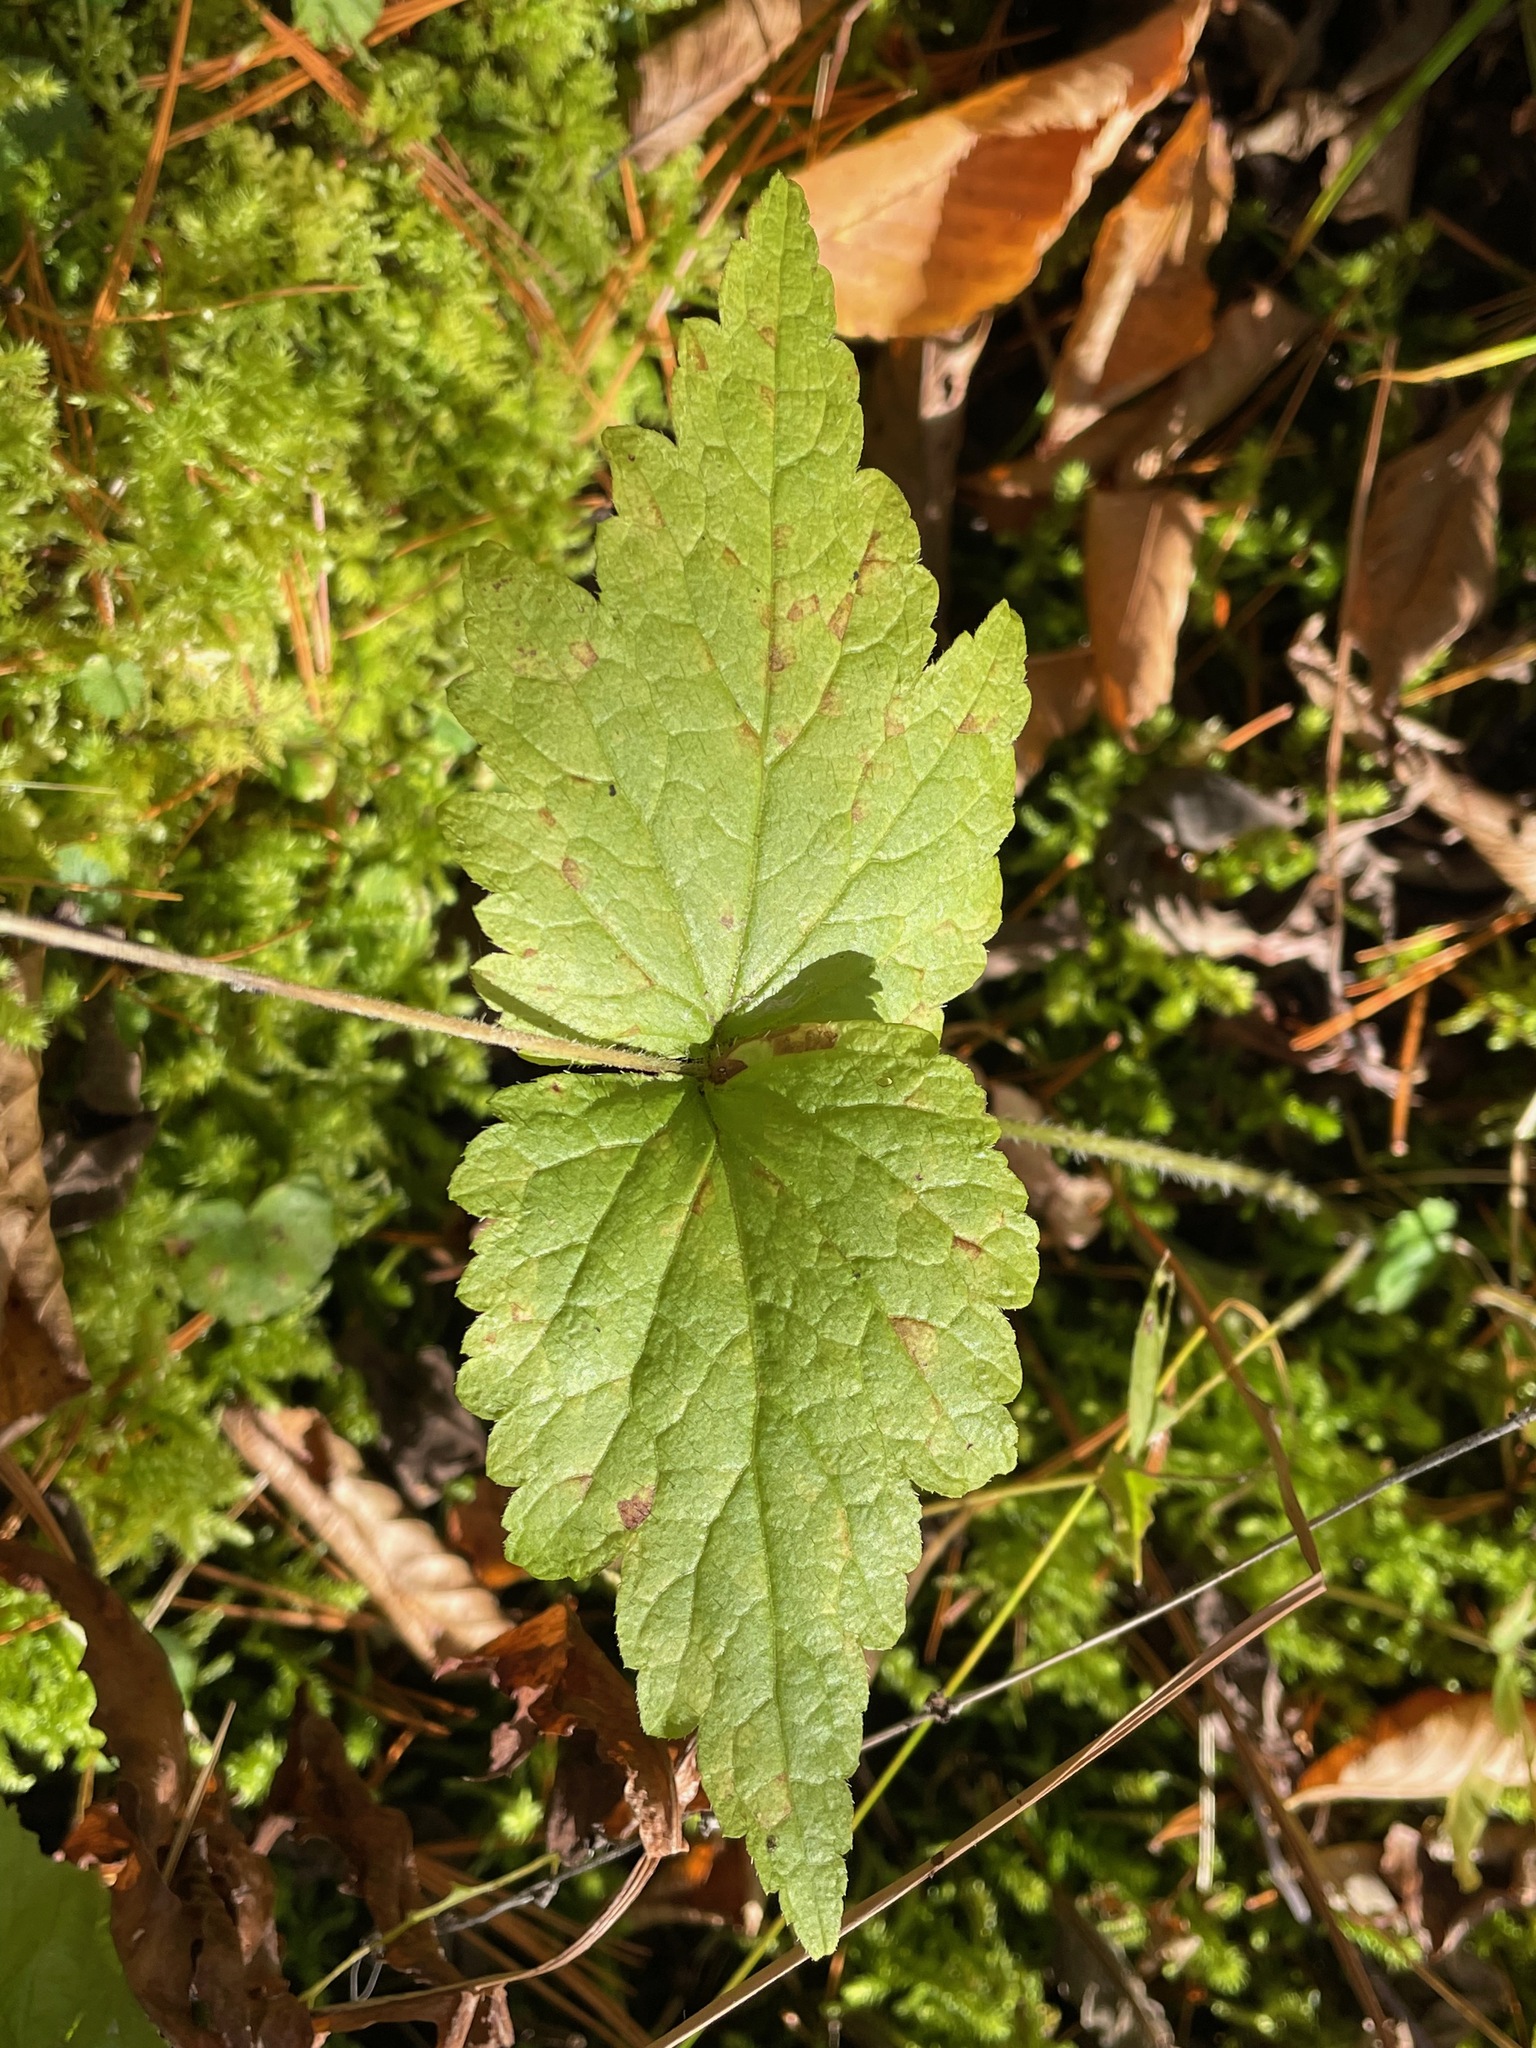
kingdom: Plantae
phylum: Tracheophyta
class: Magnoliopsida
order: Saxifragales
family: Saxifragaceae
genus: Mitella
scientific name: Mitella diphylla
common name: Coolwort
